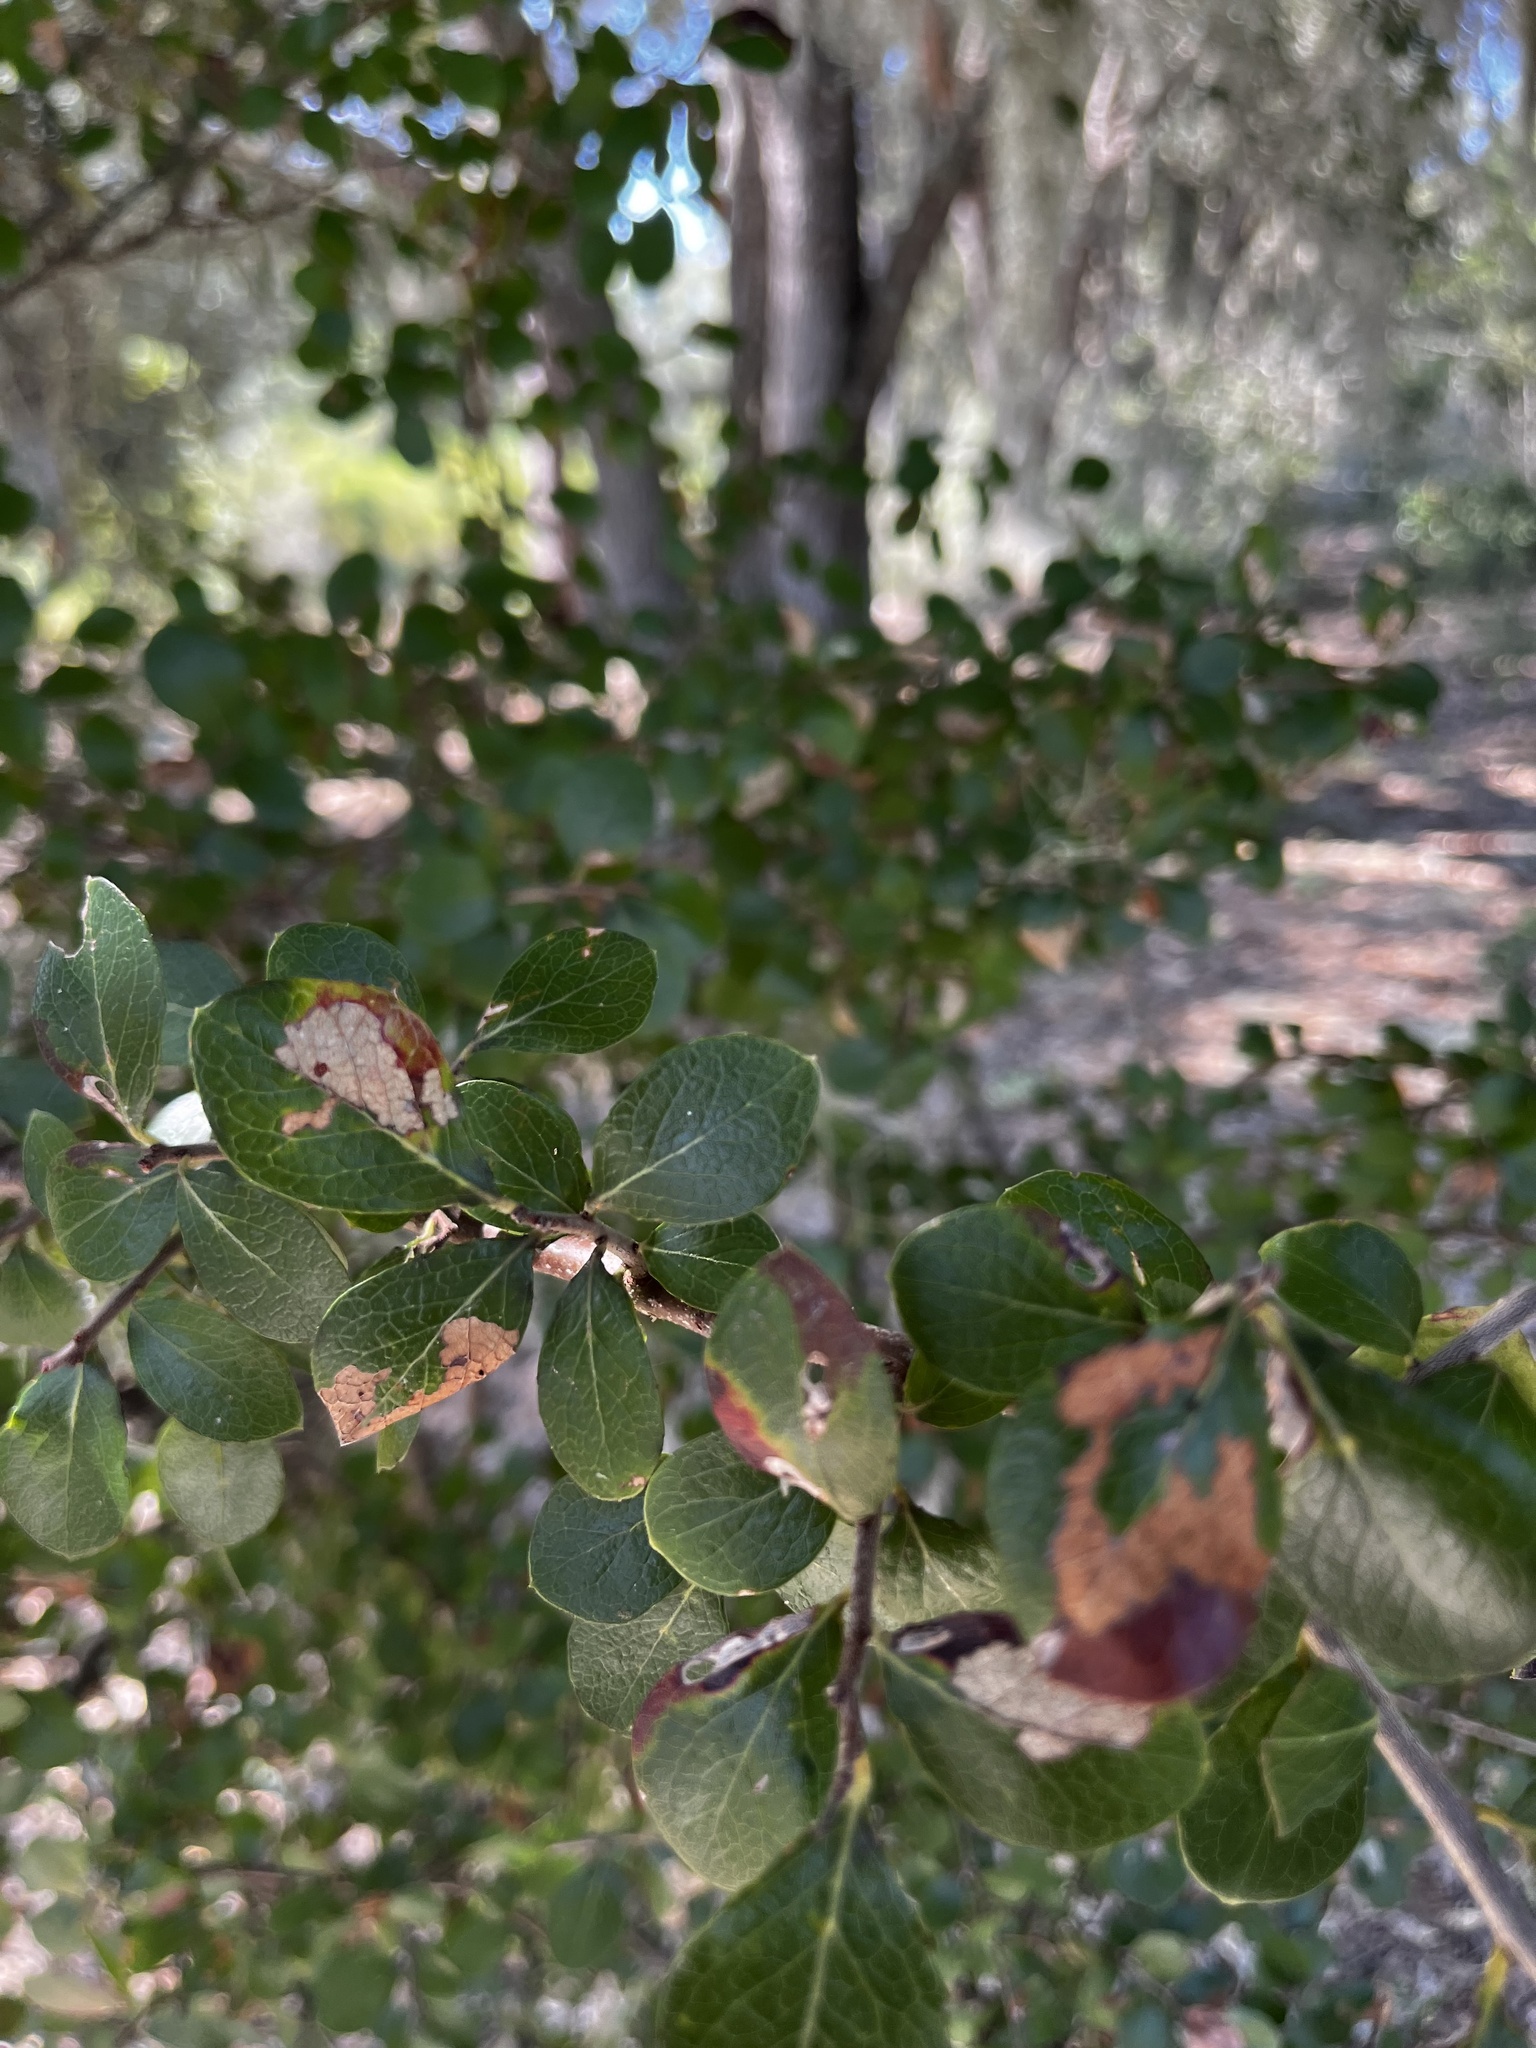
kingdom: Plantae
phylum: Tracheophyta
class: Magnoliopsida
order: Ericales
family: Ericaceae
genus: Vaccinium
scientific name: Vaccinium arboreum
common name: Farkleberry
